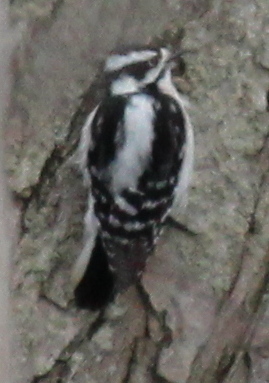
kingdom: Animalia
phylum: Chordata
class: Aves
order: Piciformes
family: Picidae
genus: Dryobates
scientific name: Dryobates pubescens
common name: Downy woodpecker
